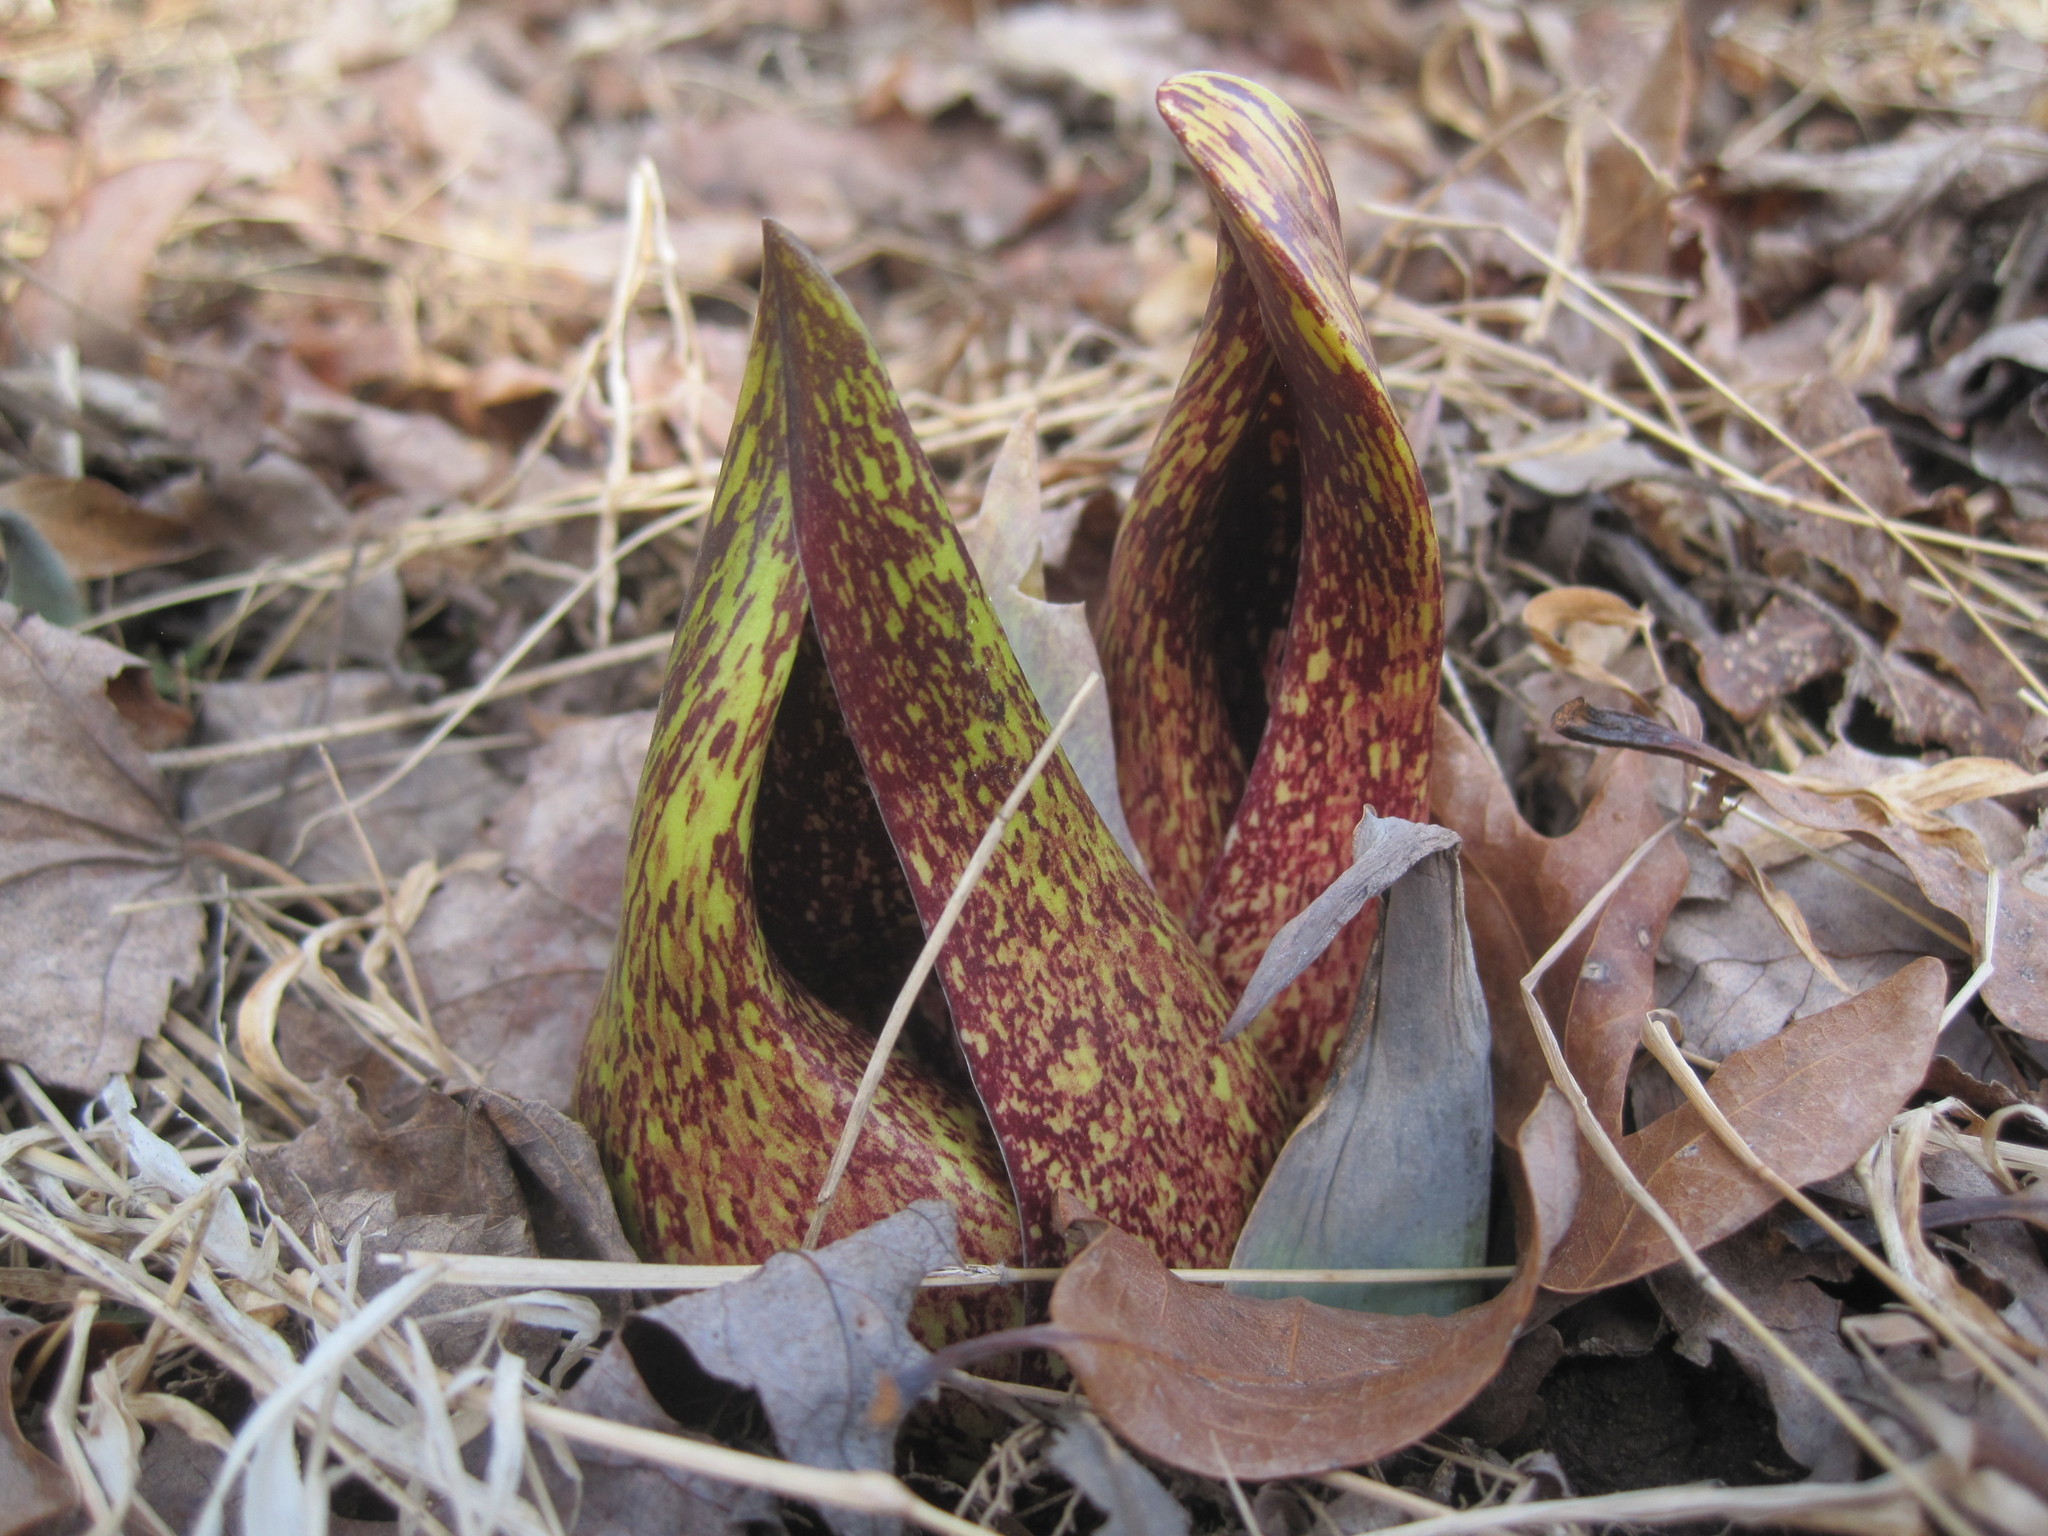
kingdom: Plantae
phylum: Tracheophyta
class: Liliopsida
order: Alismatales
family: Araceae
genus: Symplocarpus
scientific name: Symplocarpus foetidus
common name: Eastern skunk cabbage
